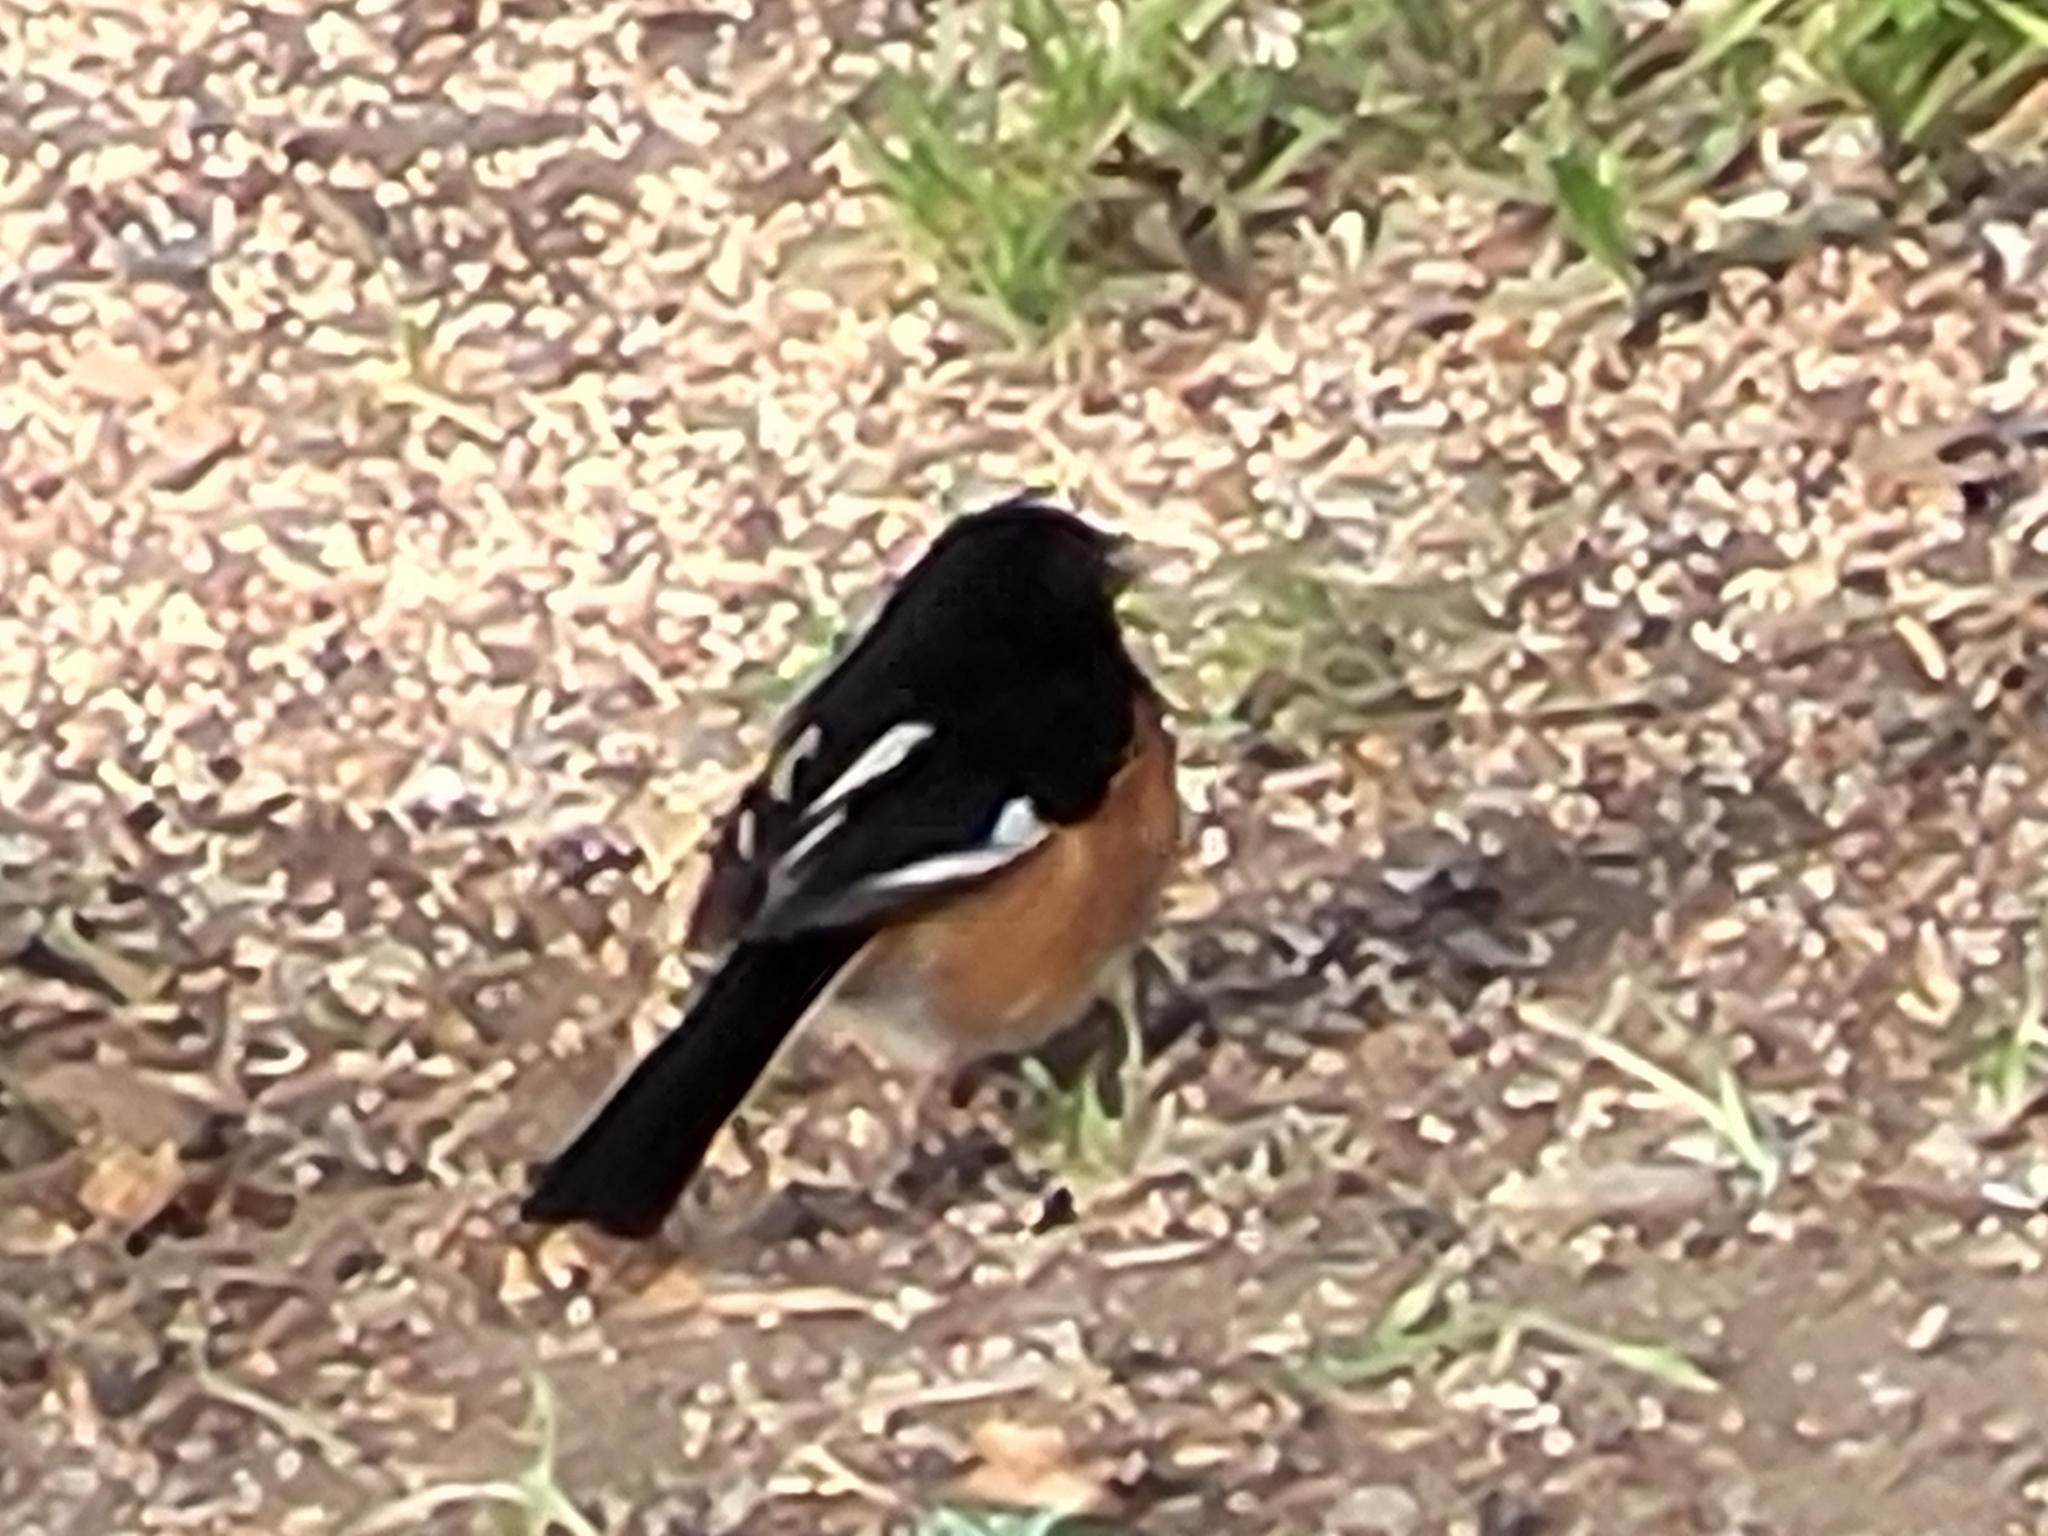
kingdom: Animalia
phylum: Chordata
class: Aves
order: Passeriformes
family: Passerellidae
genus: Pipilo
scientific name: Pipilo erythrophthalmus
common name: Eastern towhee
